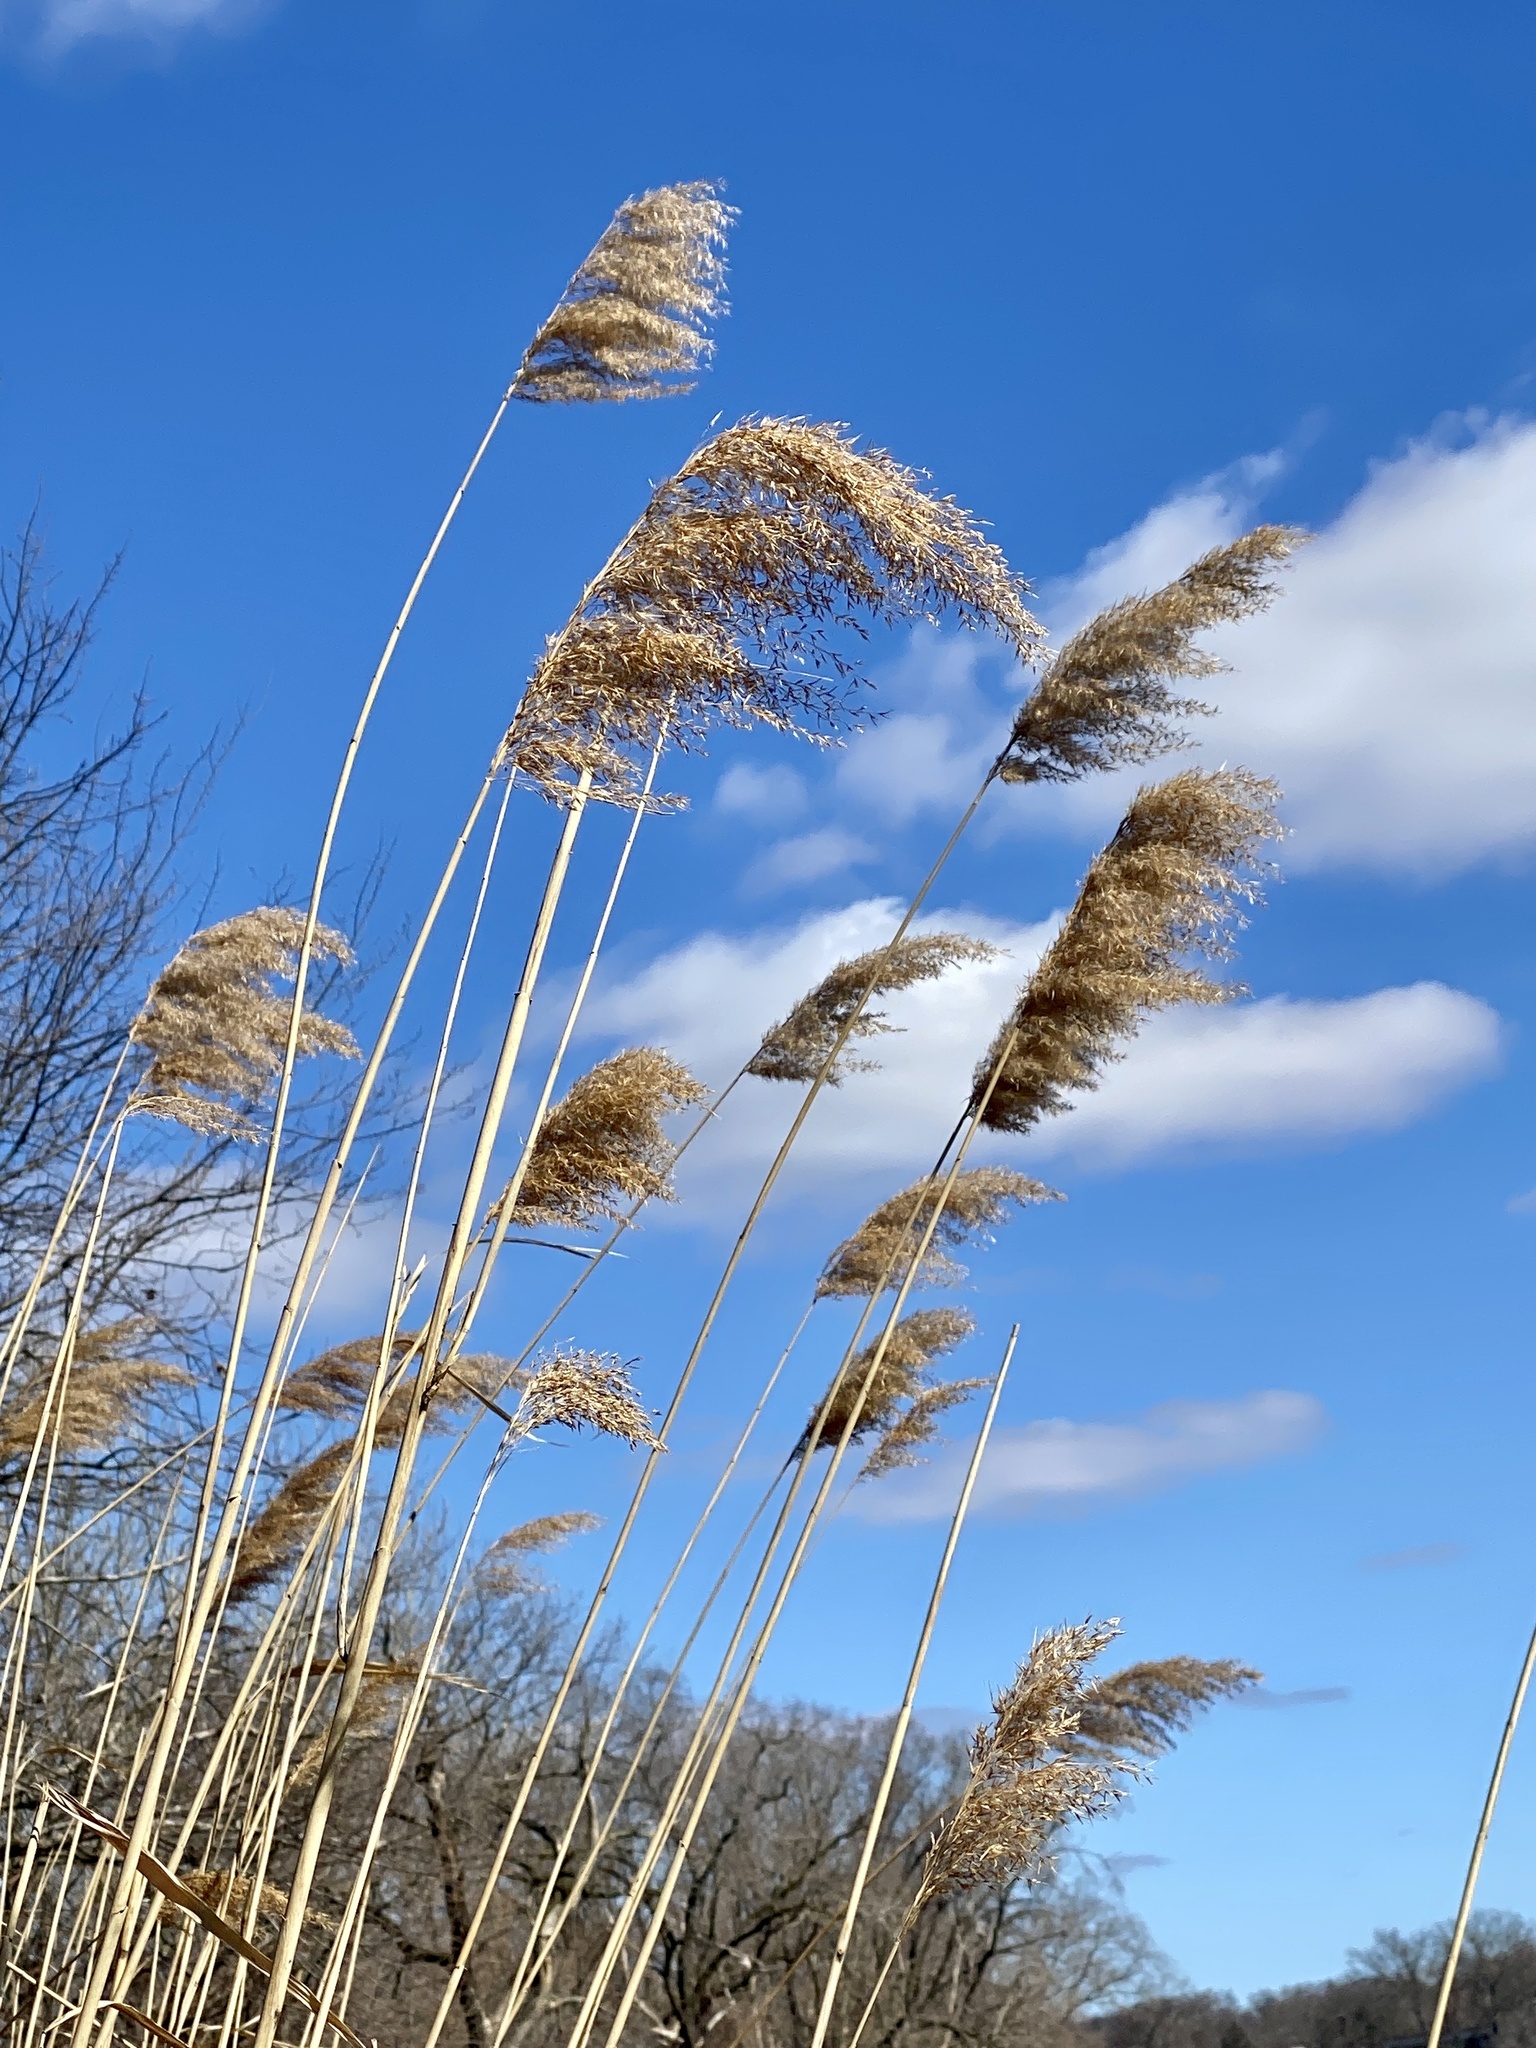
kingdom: Plantae
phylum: Tracheophyta
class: Liliopsida
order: Poales
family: Poaceae
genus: Phragmites
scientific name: Phragmites australis
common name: Common reed
